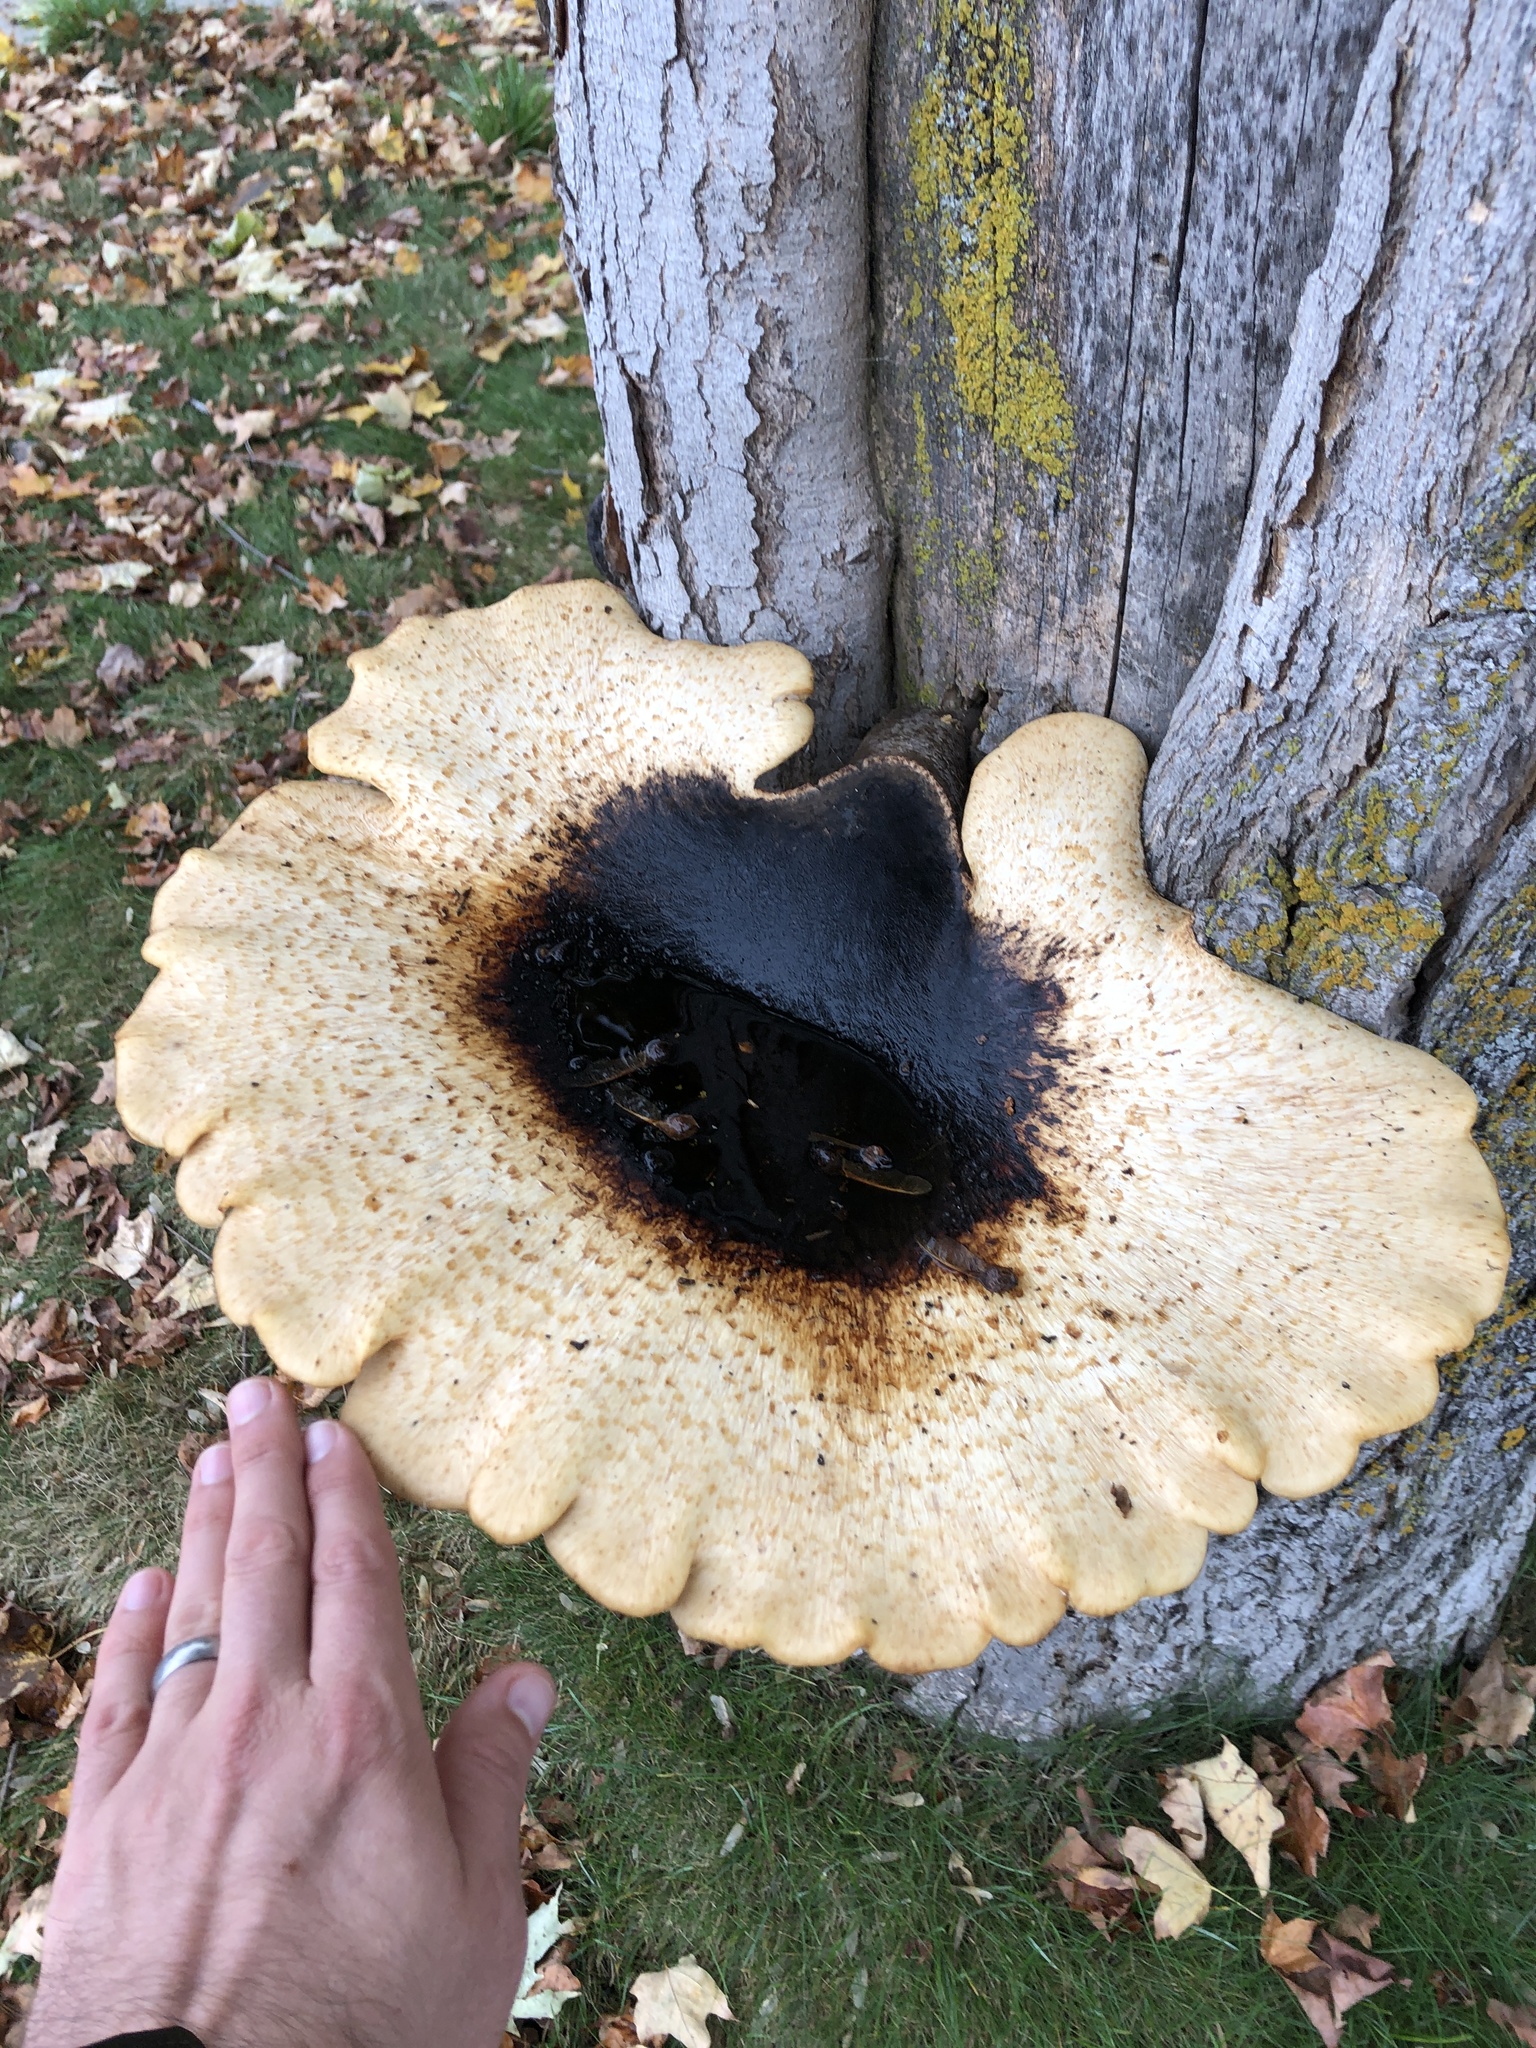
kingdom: Fungi
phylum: Basidiomycota
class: Agaricomycetes
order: Polyporales
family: Polyporaceae
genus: Cerioporus
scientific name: Cerioporus squamosus
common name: Dryad's saddle
